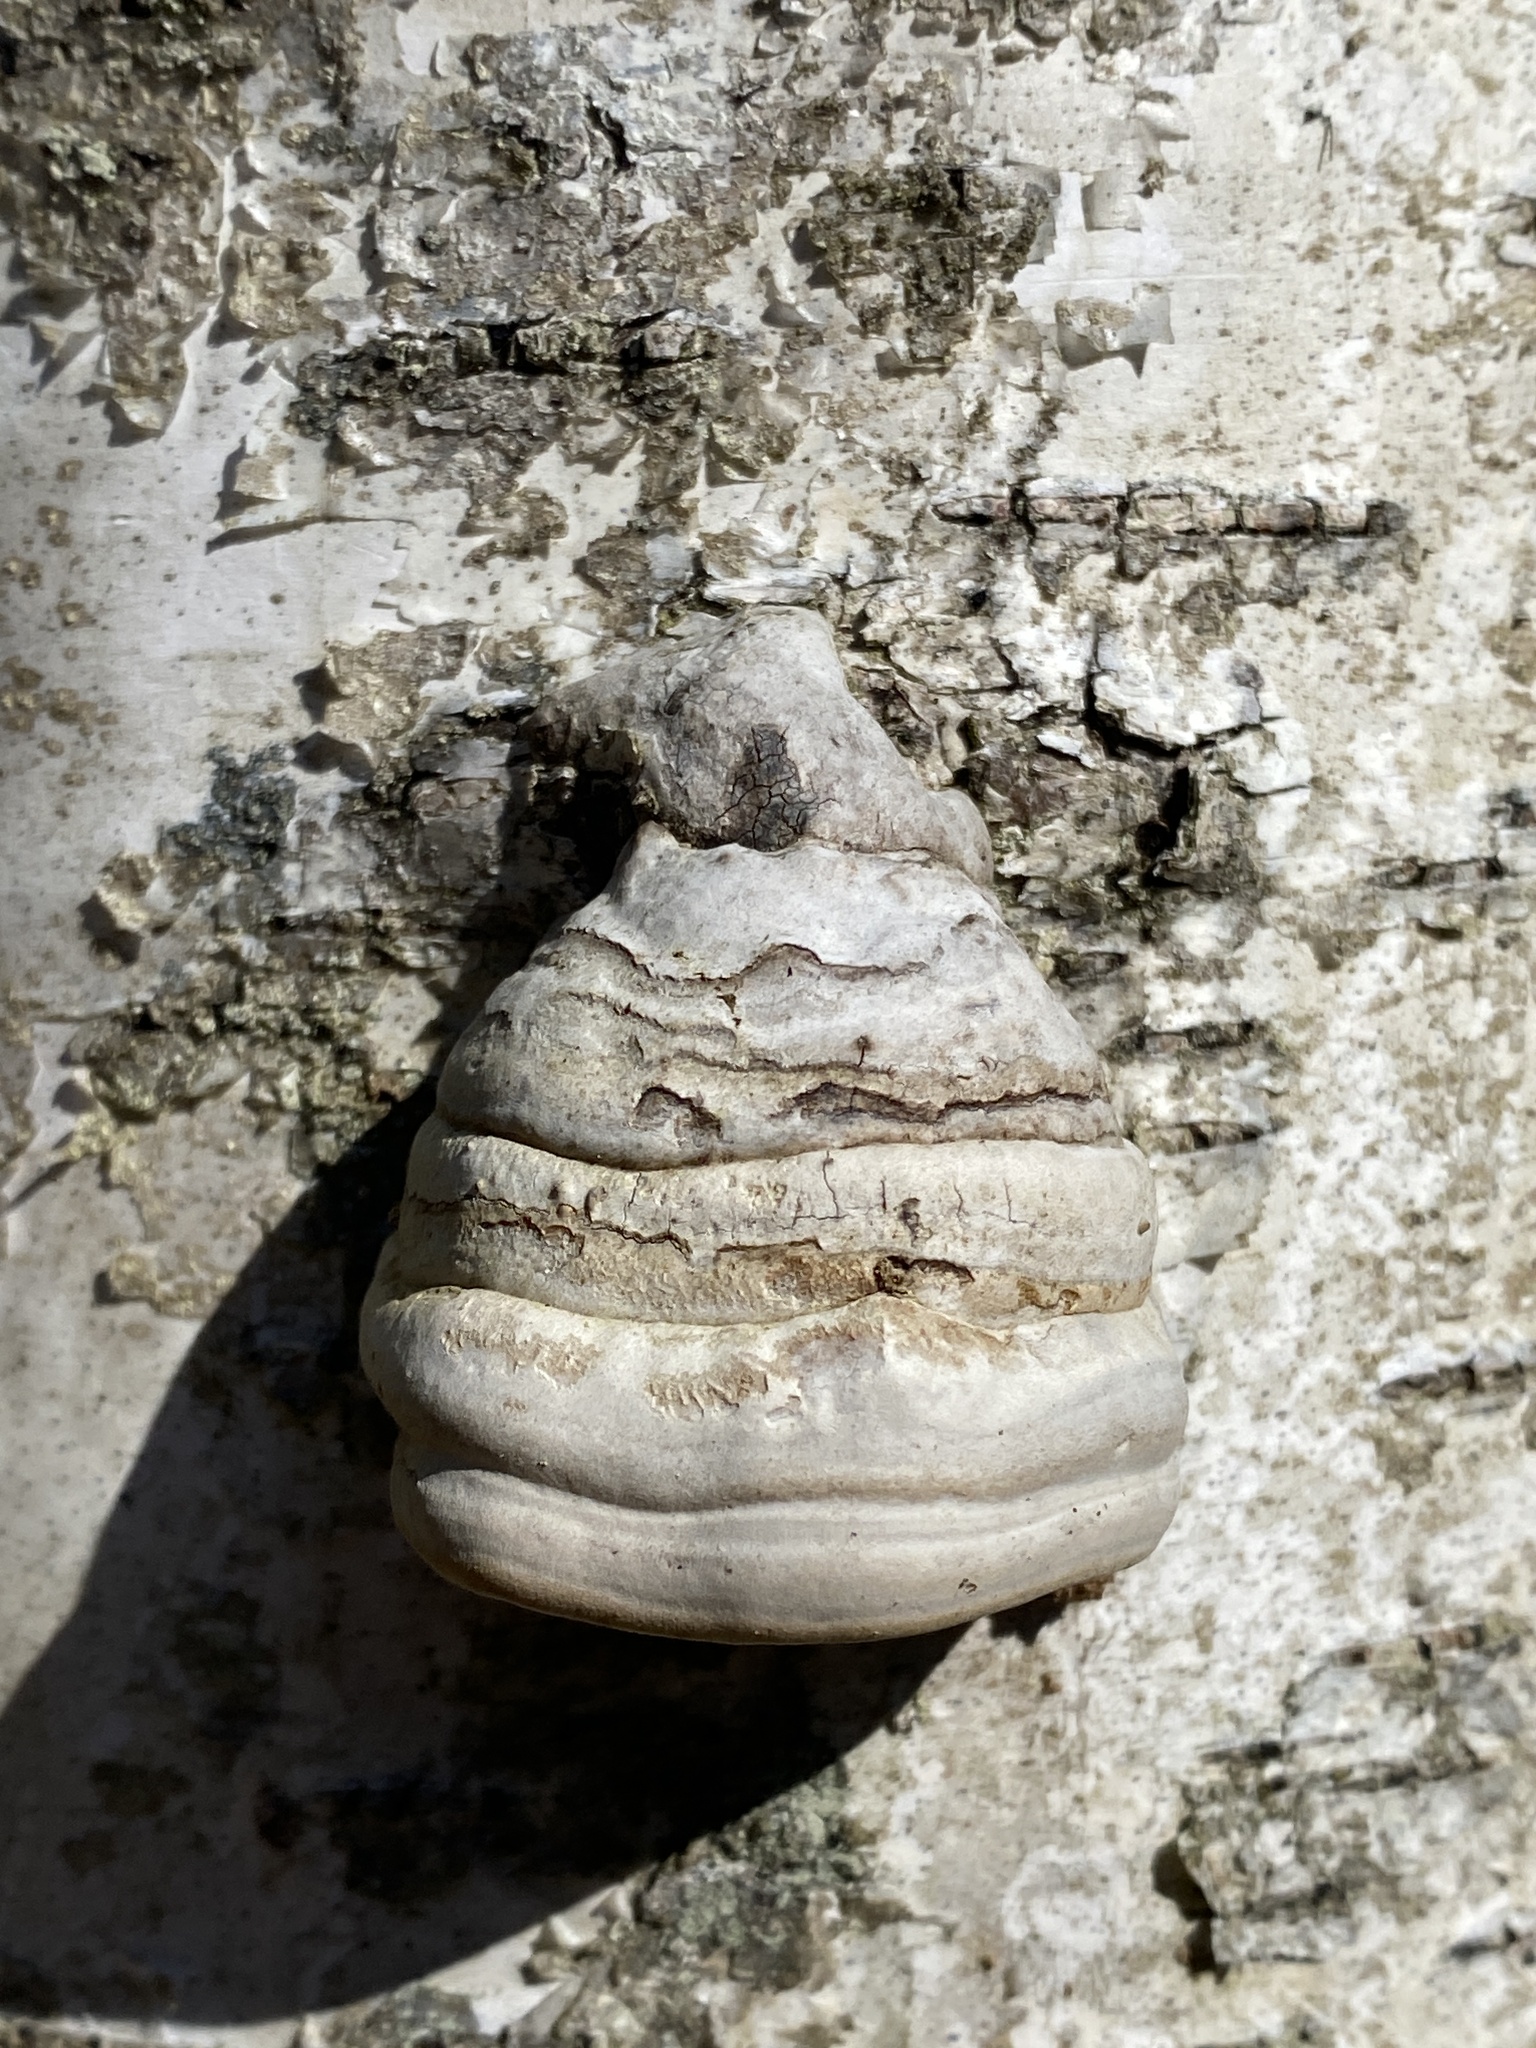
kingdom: Fungi
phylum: Basidiomycota
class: Agaricomycetes
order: Polyporales
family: Polyporaceae
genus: Fomes
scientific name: Fomes fomentarius
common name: Hoof fungus
